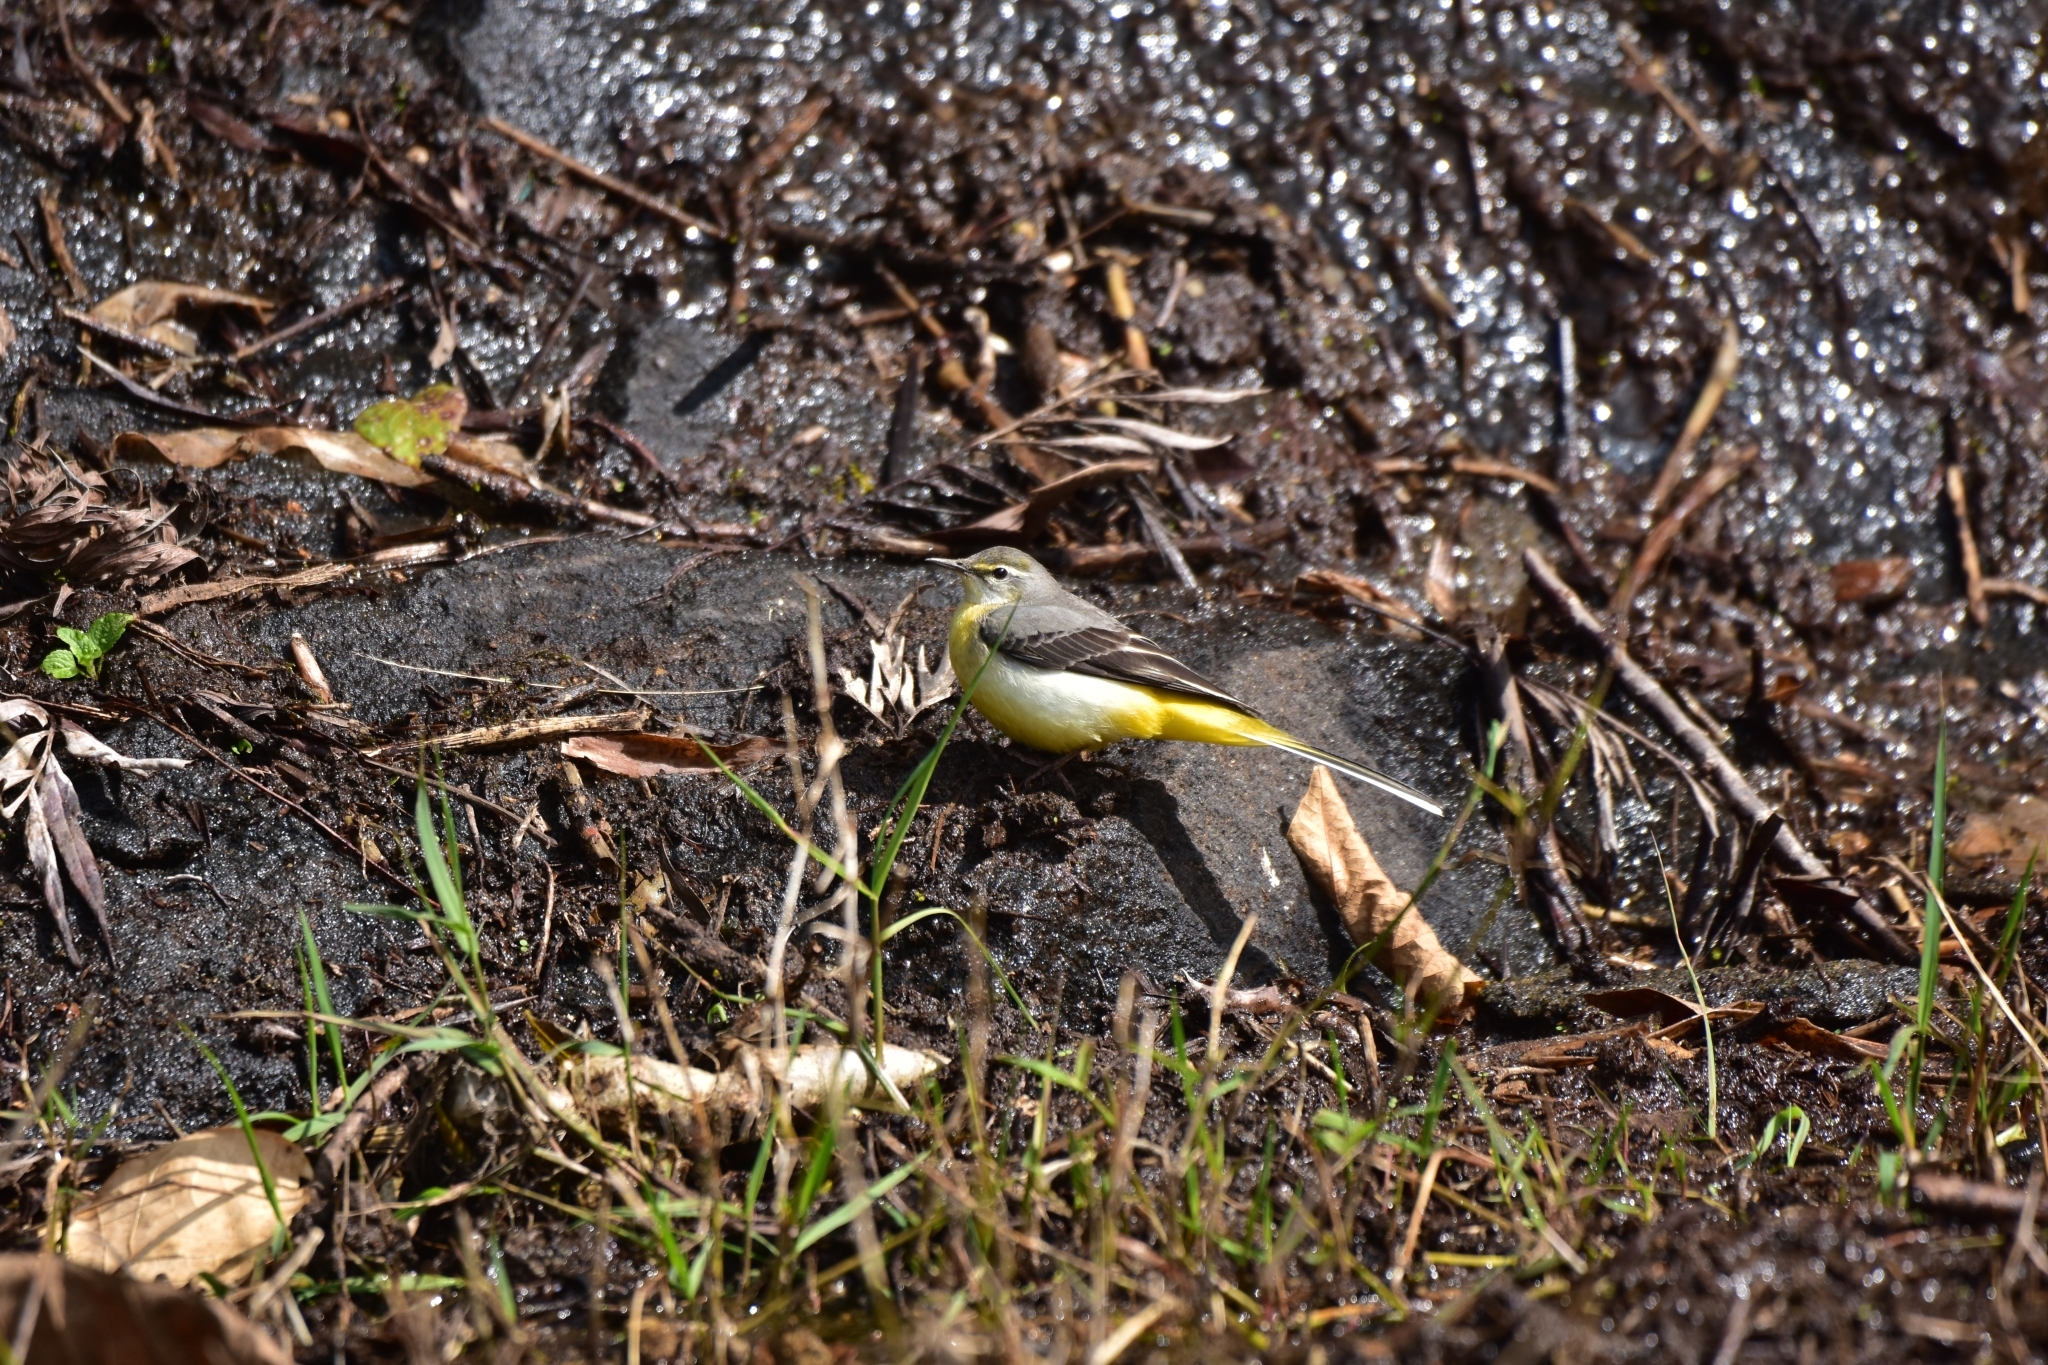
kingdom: Animalia
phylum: Chordata
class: Aves
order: Passeriformes
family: Motacillidae
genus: Motacilla
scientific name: Motacilla cinerea
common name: Grey wagtail
